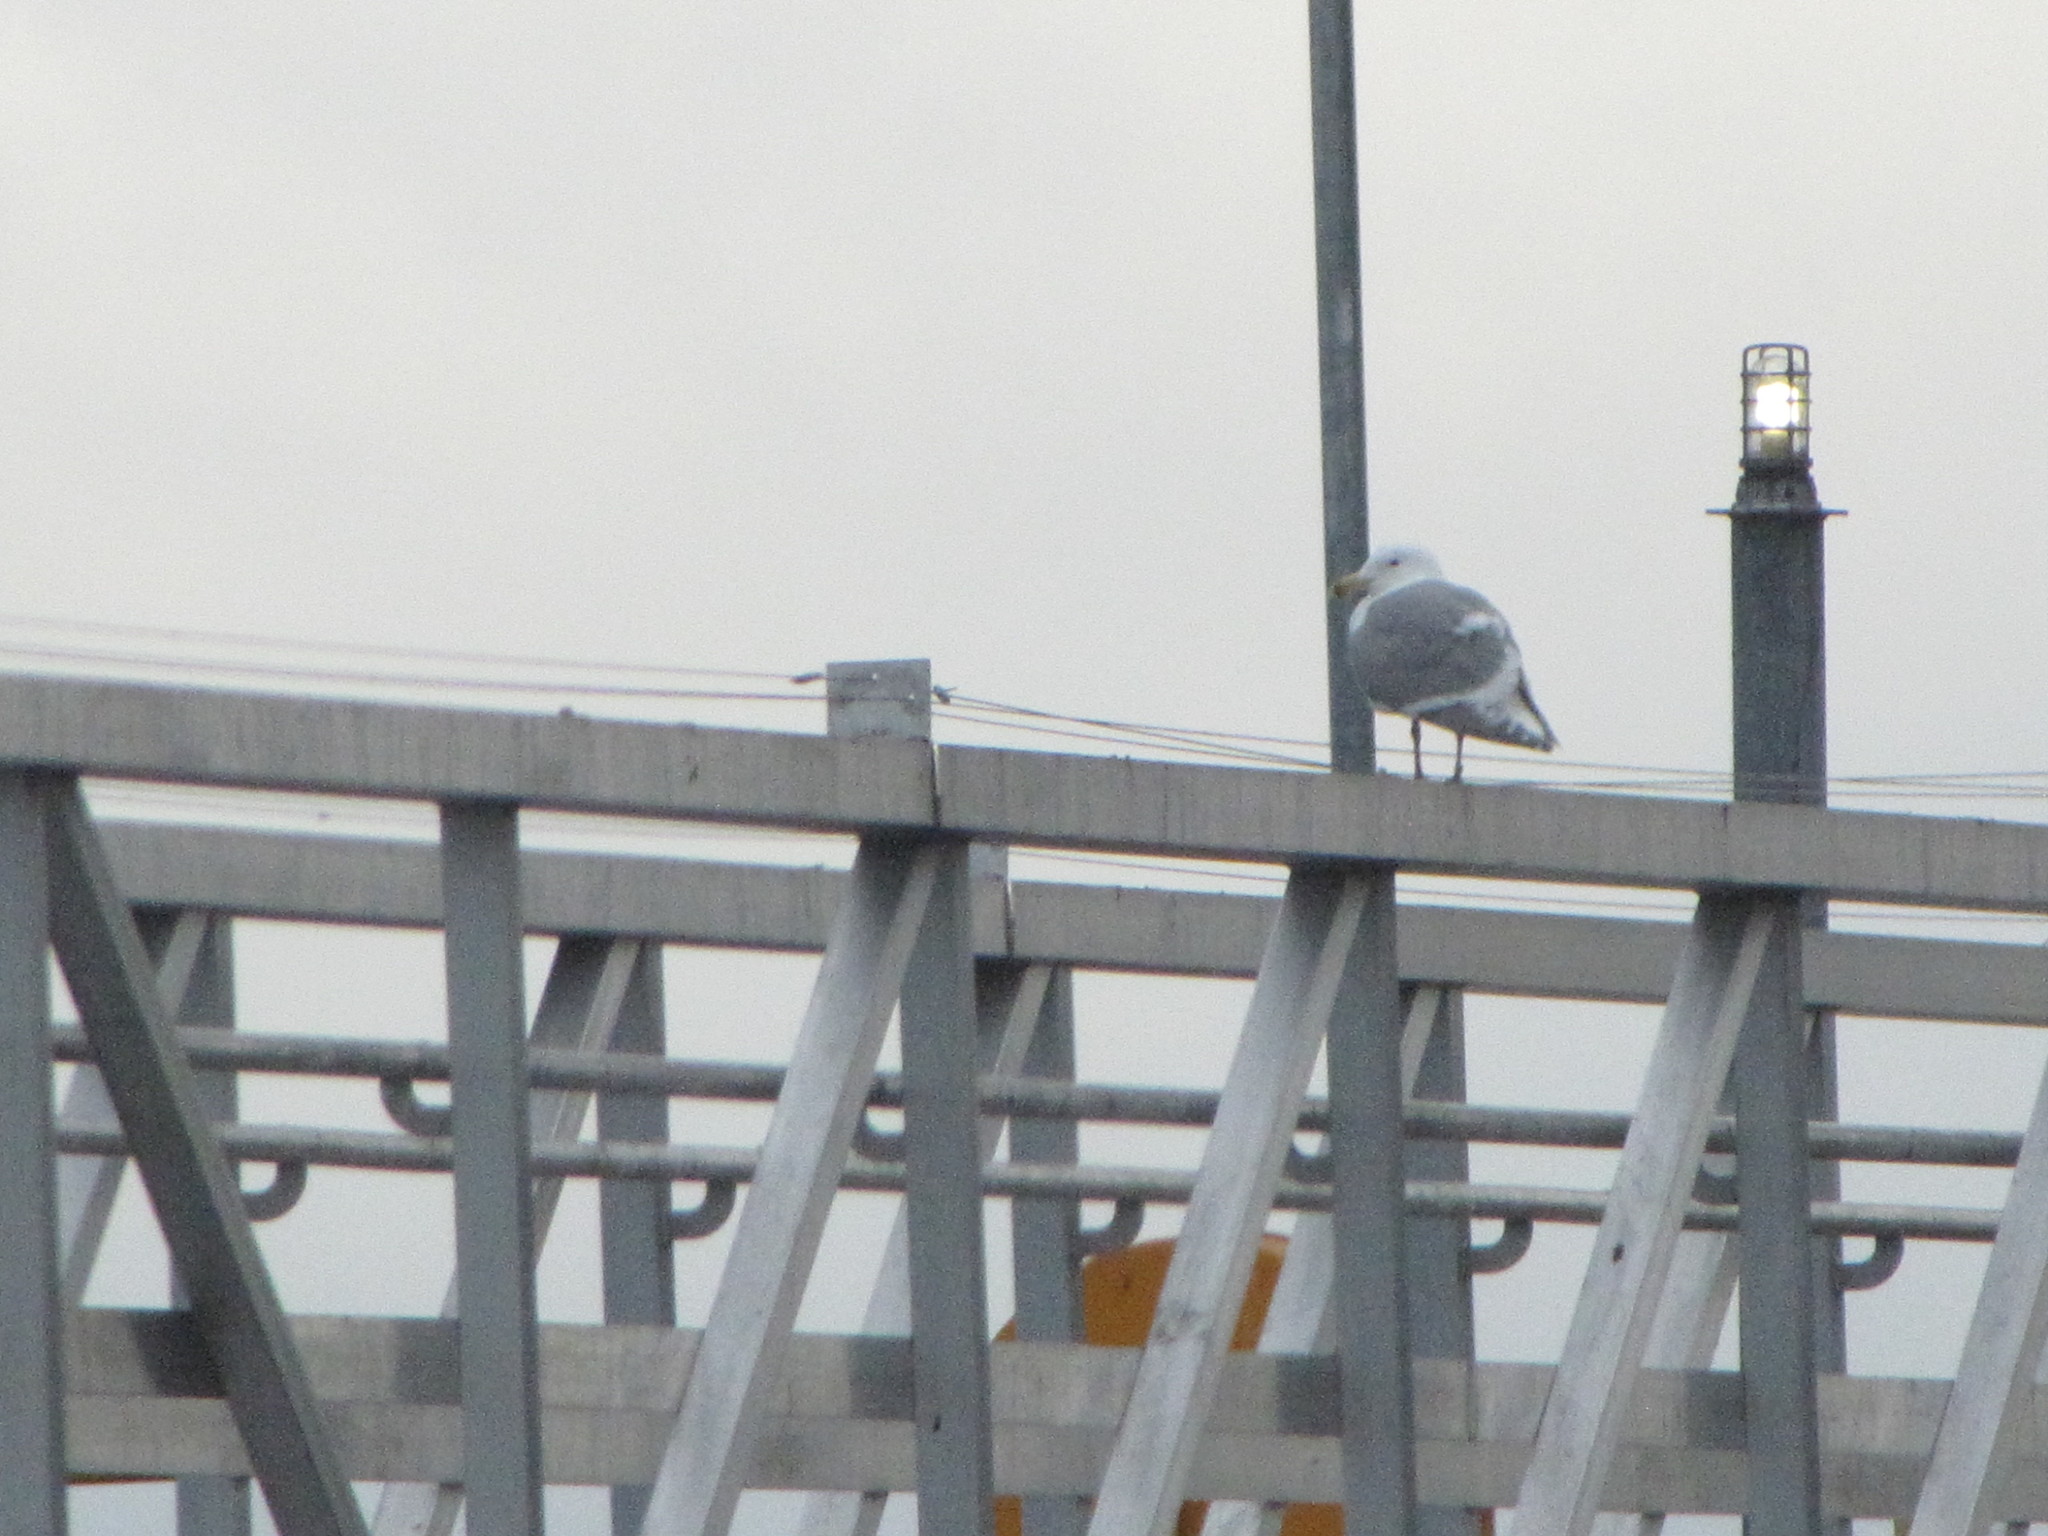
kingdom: Animalia
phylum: Chordata
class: Aves
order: Charadriiformes
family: Laridae
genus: Larus
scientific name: Larus glaucescens
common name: Glaucous-winged gull
